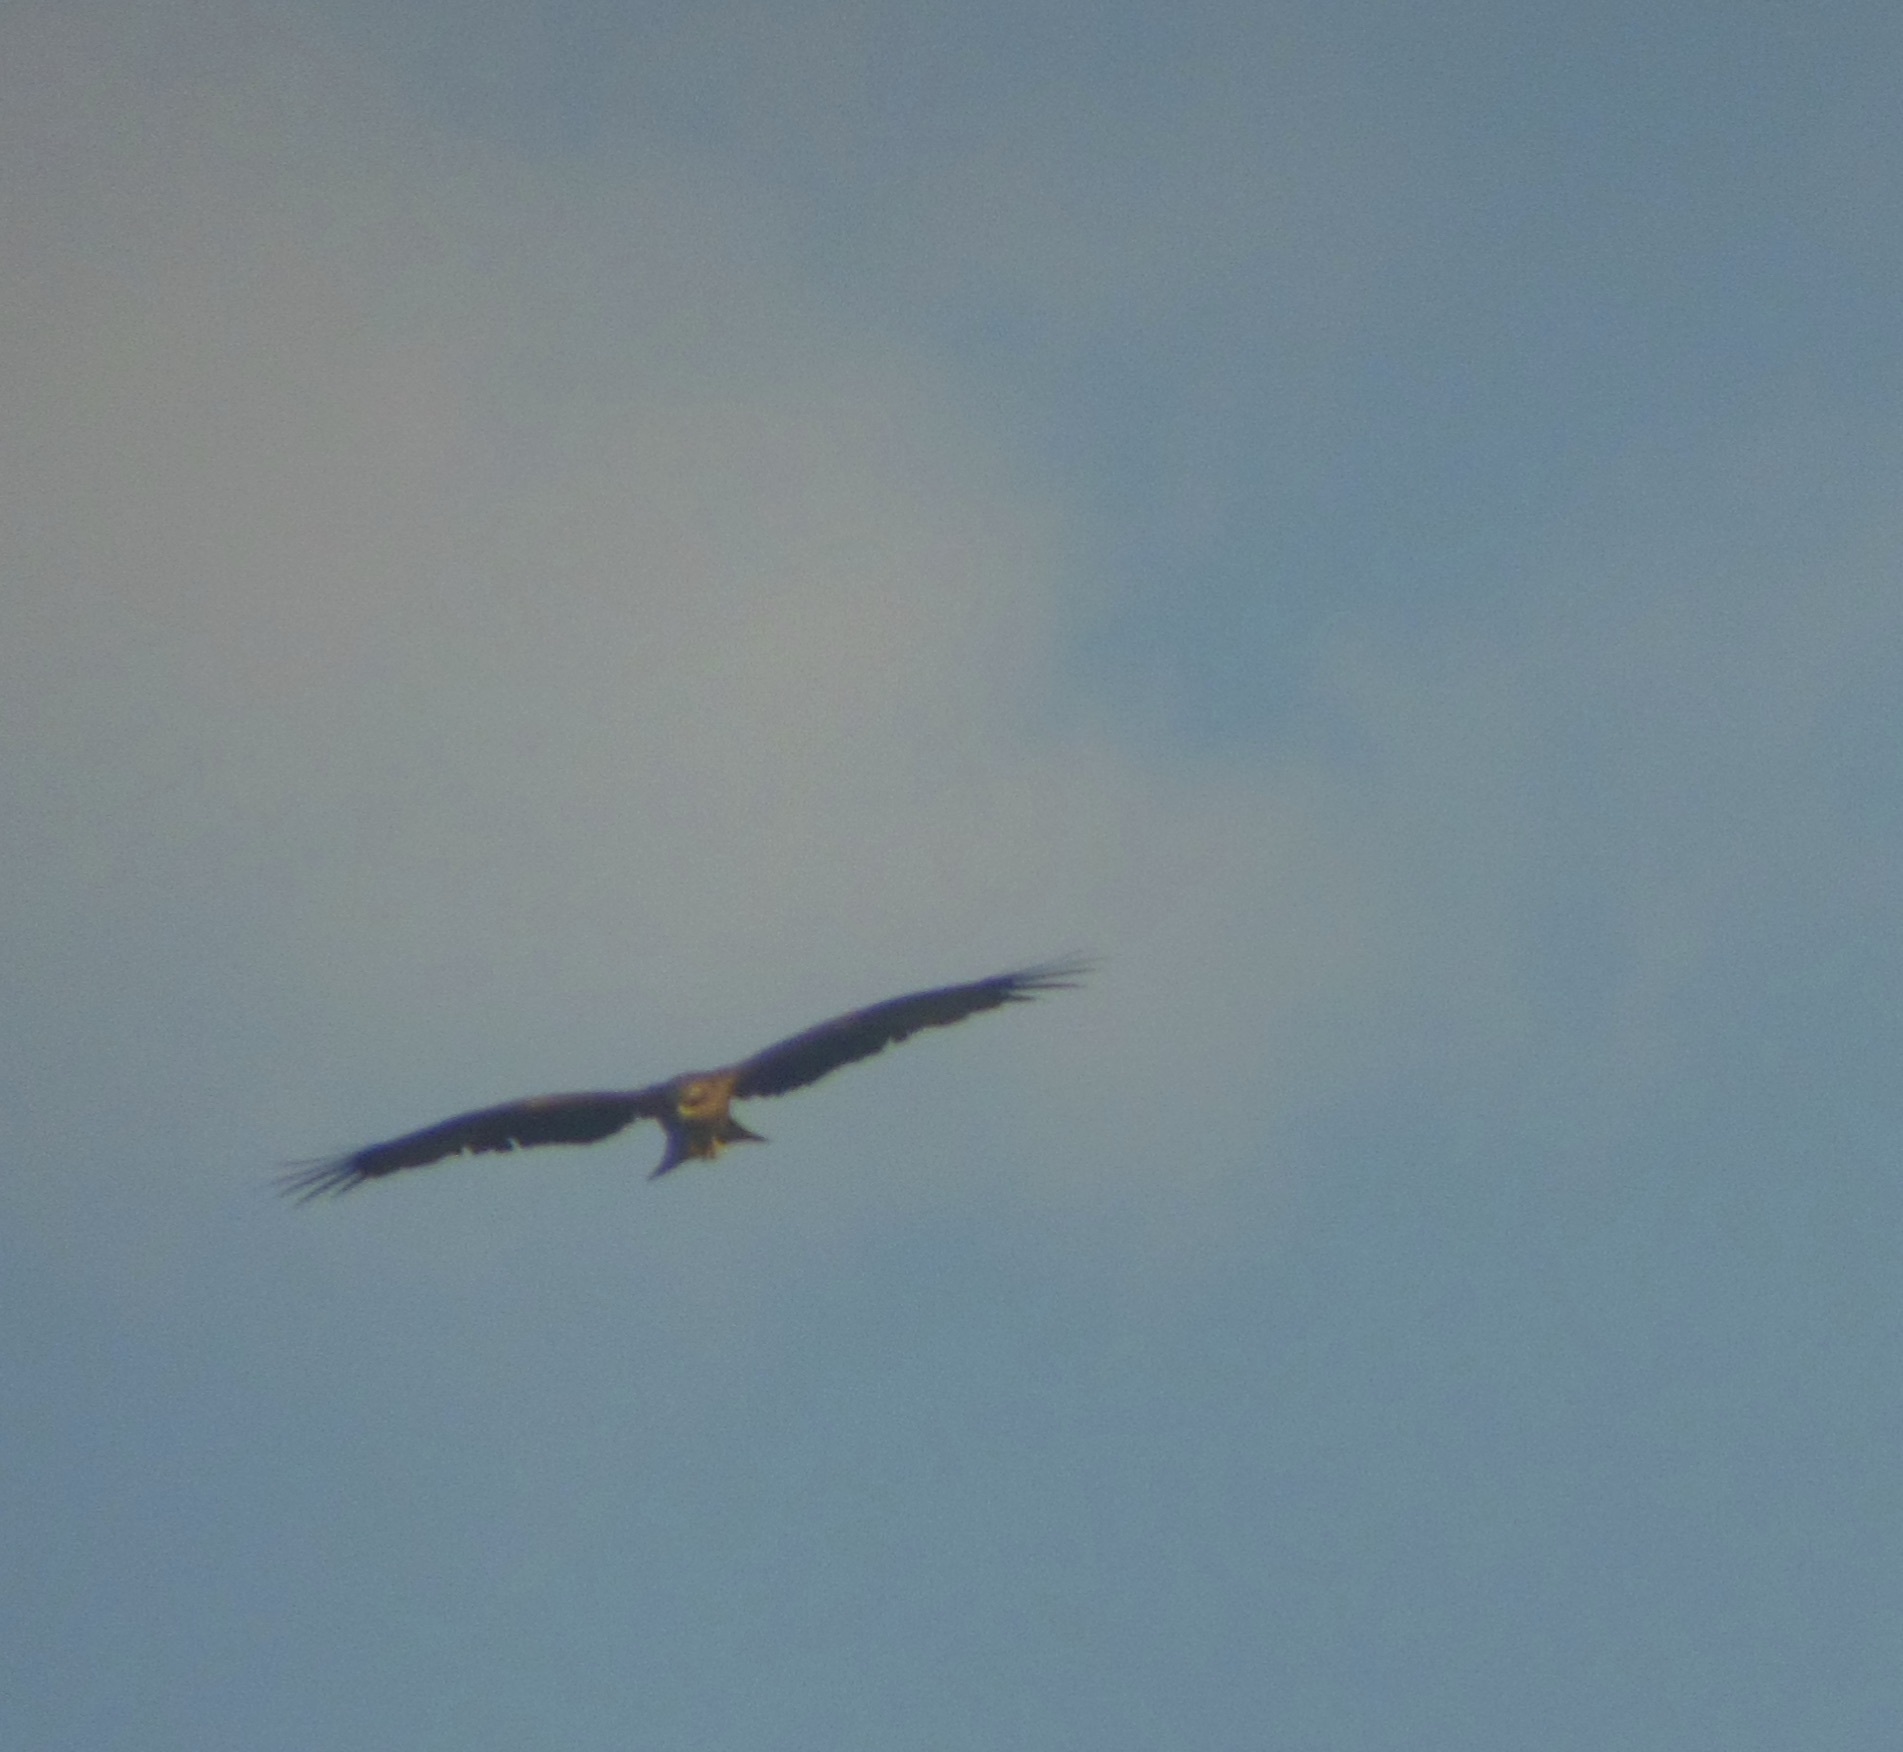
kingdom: Animalia
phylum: Chordata
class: Aves
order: Accipitriformes
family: Accipitridae
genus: Milvus
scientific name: Milvus migrans
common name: Black kite
